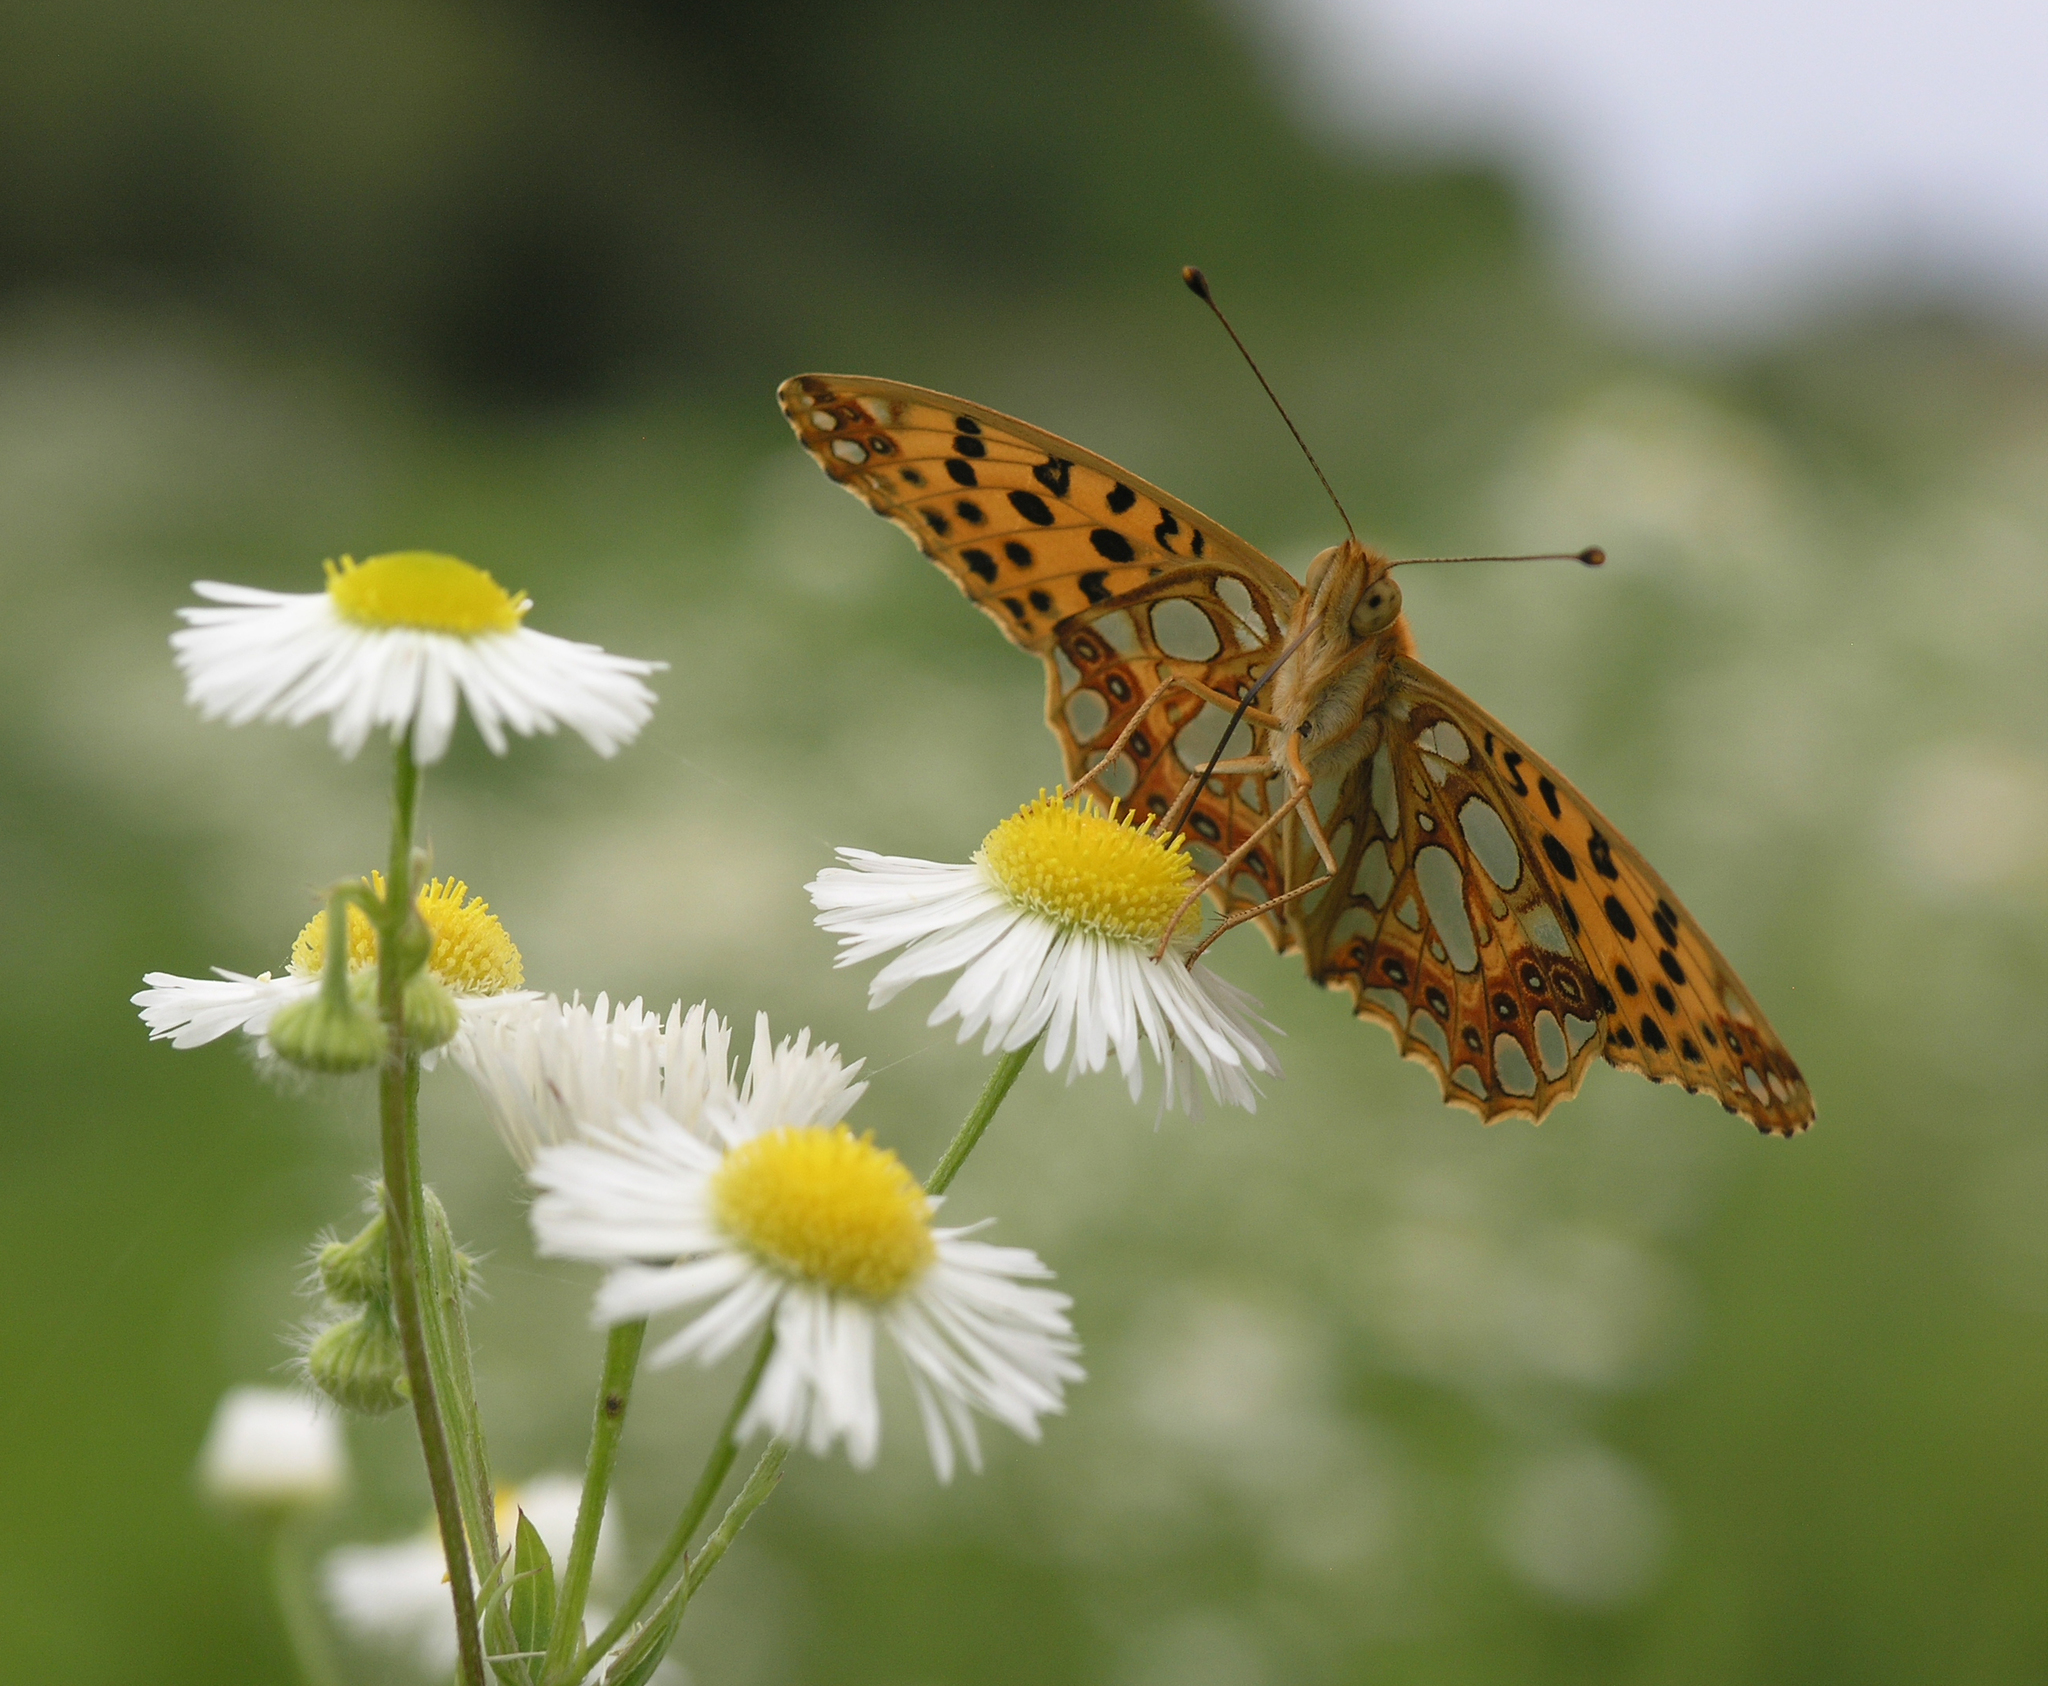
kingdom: Animalia
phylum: Arthropoda
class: Insecta
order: Lepidoptera
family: Nymphalidae
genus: Issoria
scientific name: Issoria lathonia
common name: Queen of spain fritillary
